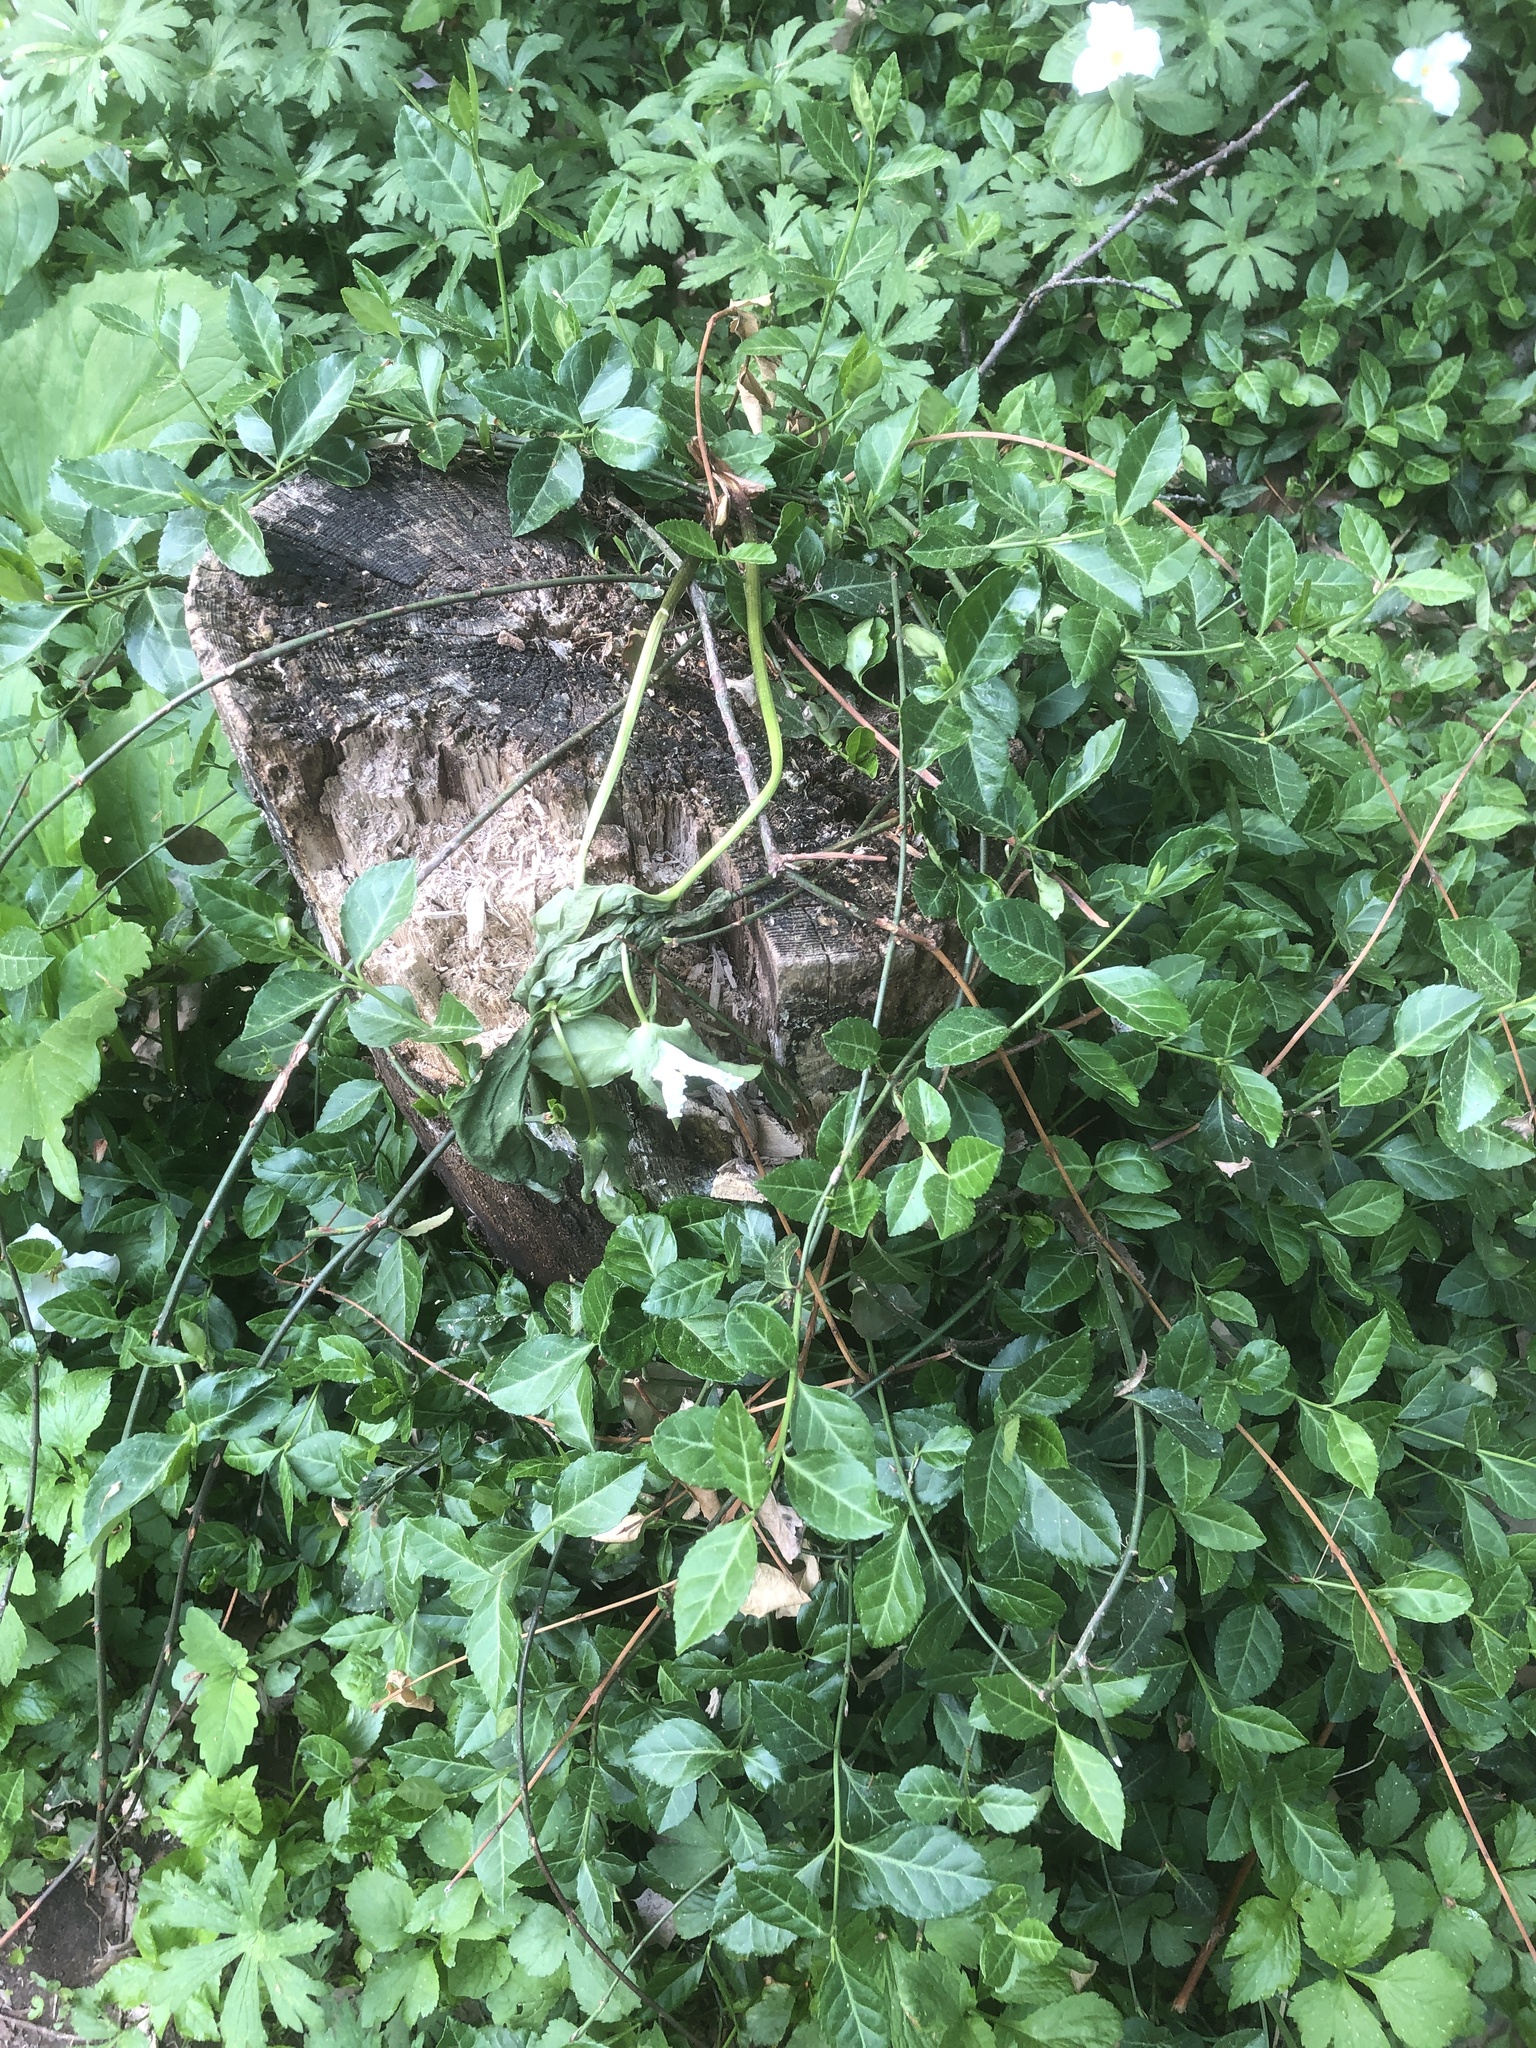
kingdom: Plantae
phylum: Tracheophyta
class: Magnoliopsida
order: Gentianales
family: Apocynaceae
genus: Vinca
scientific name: Vinca minor
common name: Lesser periwinkle
